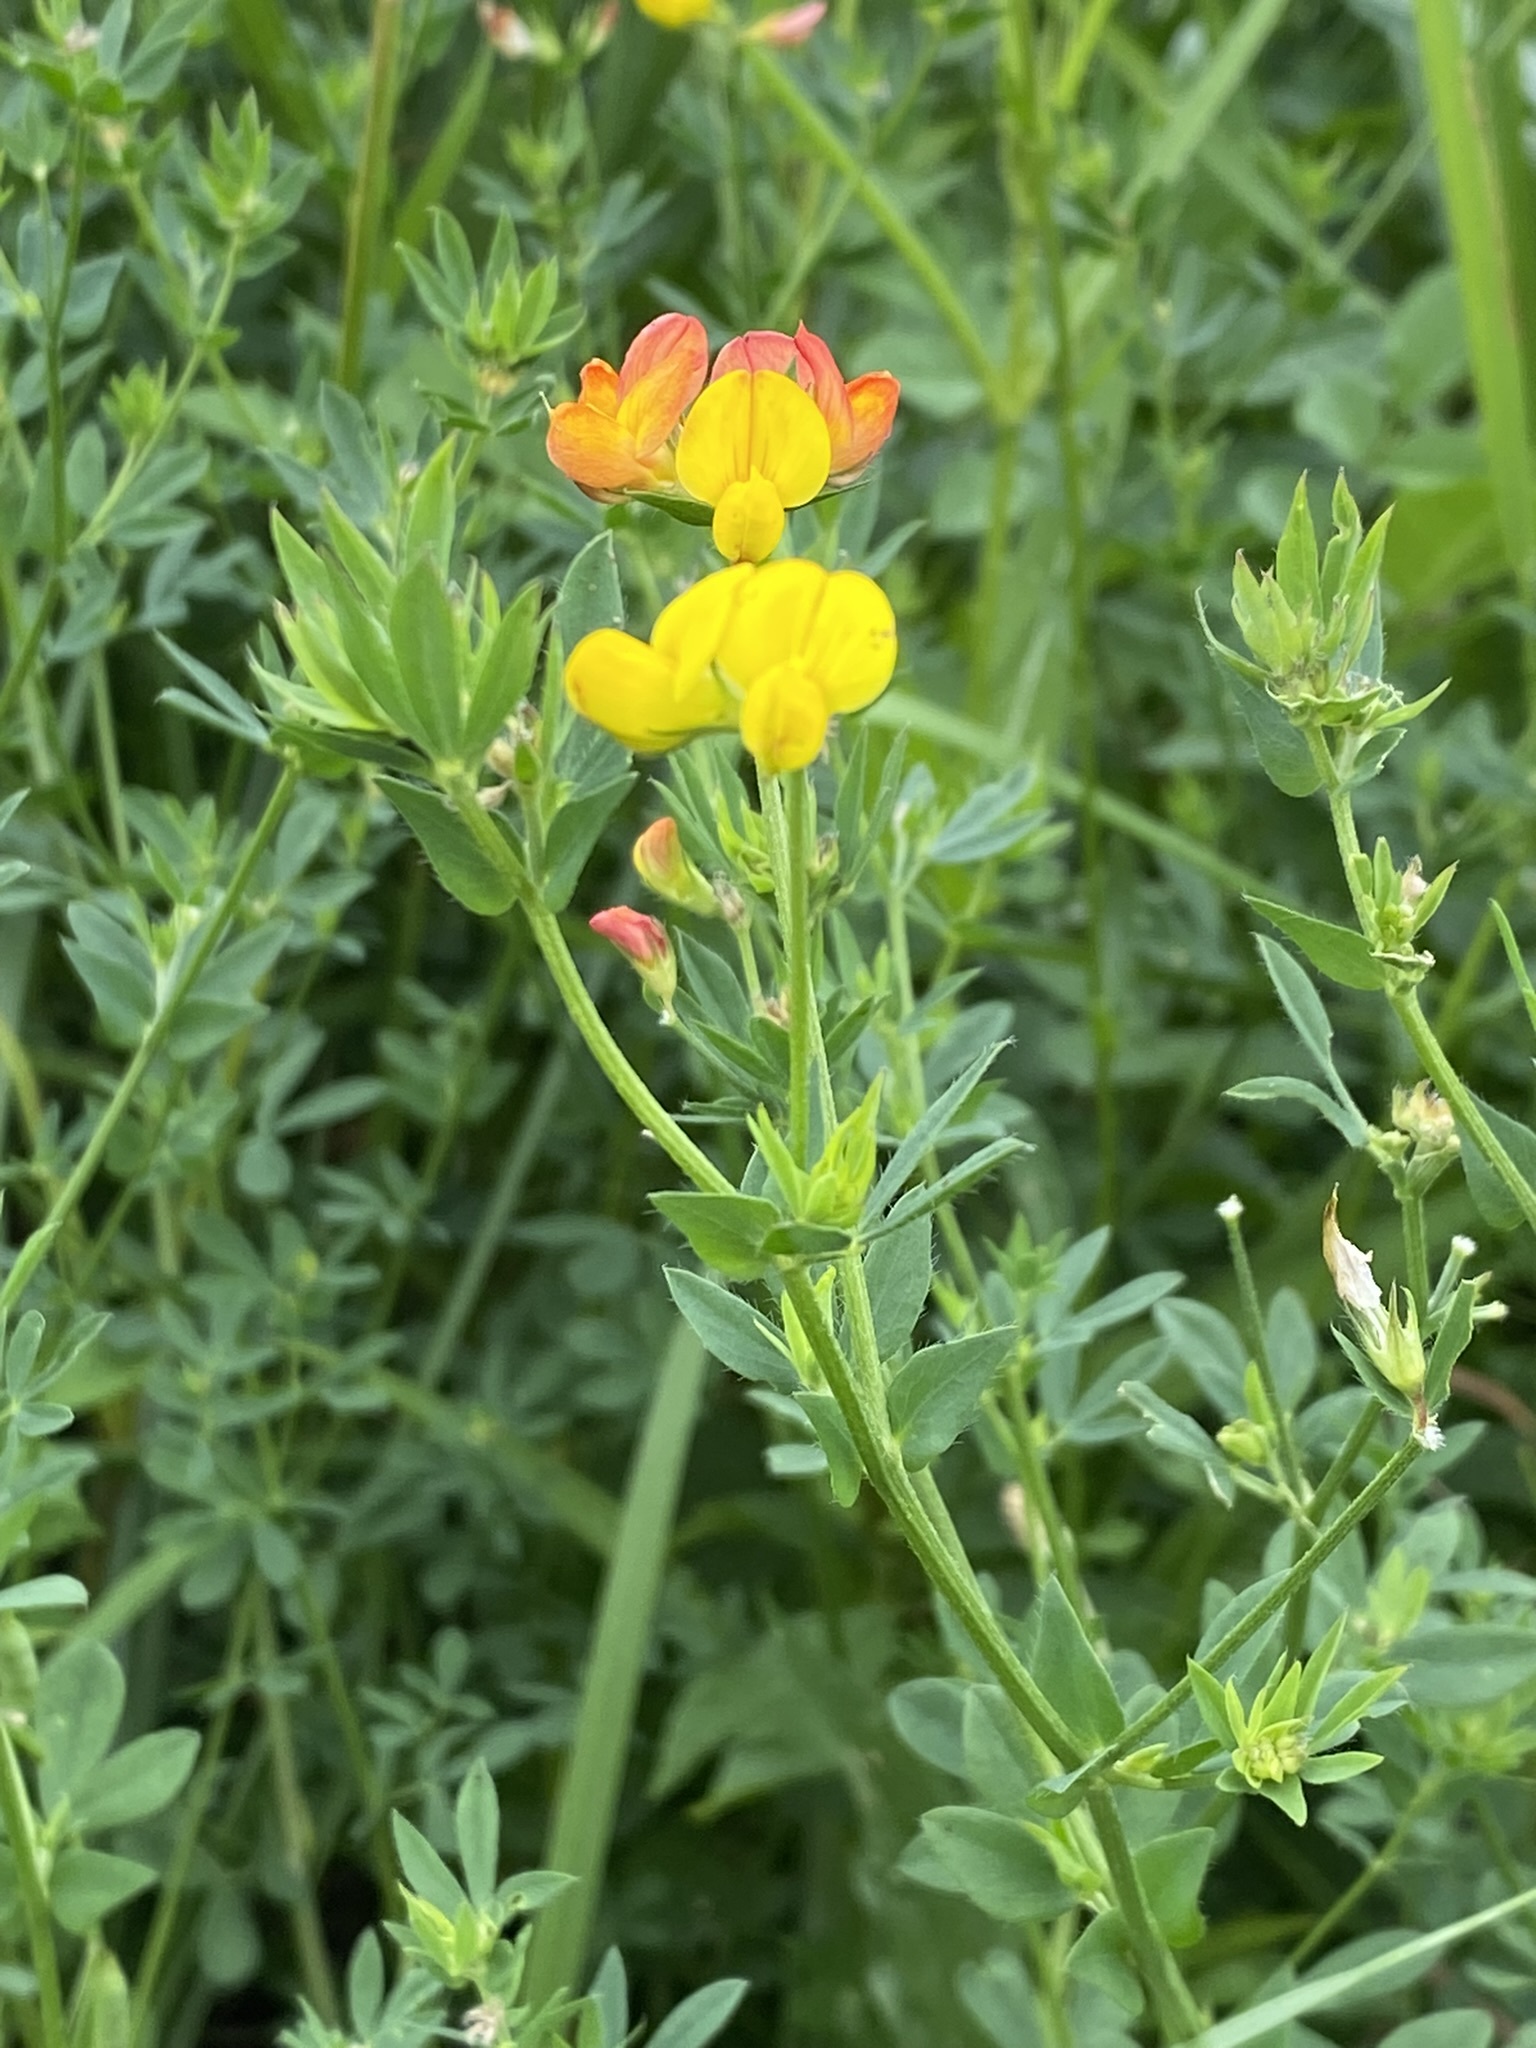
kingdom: Plantae
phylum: Tracheophyta
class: Magnoliopsida
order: Fabales
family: Fabaceae
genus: Lotus
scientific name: Lotus corniculatus
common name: Common bird's-foot-trefoil
